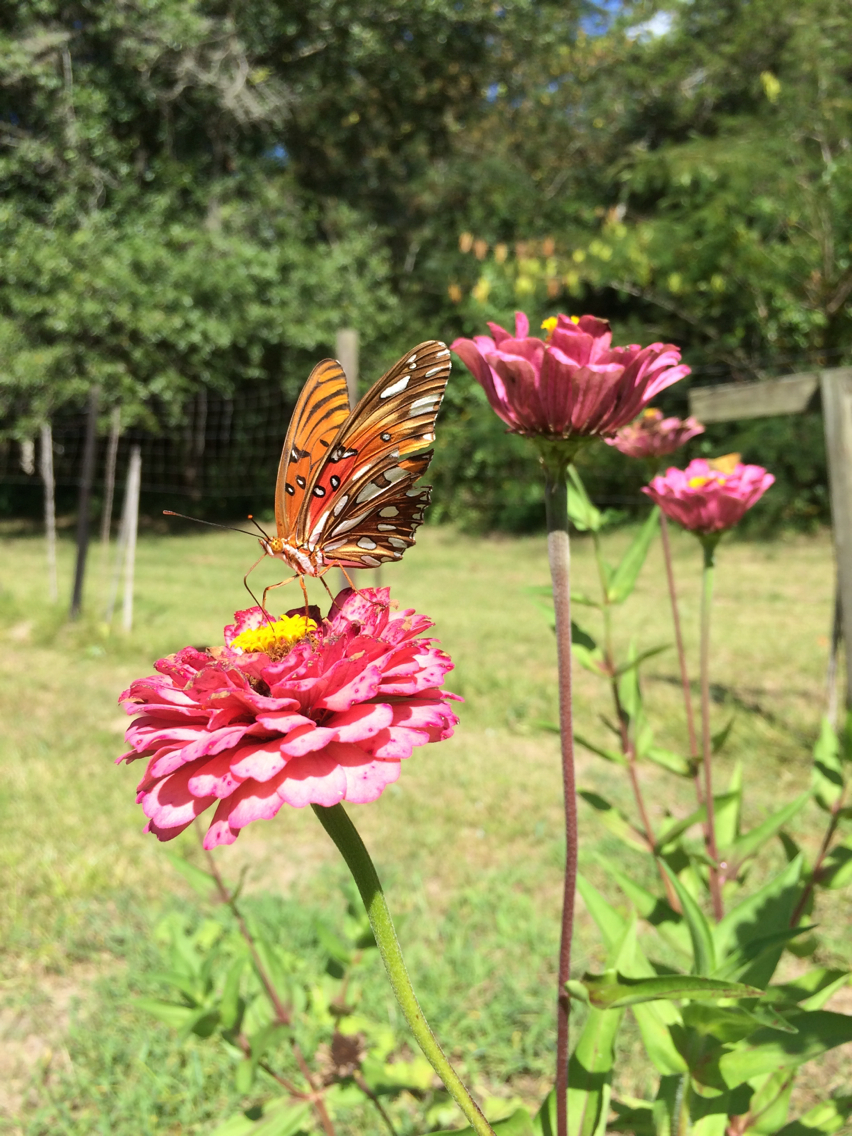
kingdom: Animalia
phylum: Arthropoda
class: Insecta
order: Lepidoptera
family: Nymphalidae
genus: Dione
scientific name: Dione vanillae
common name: Gulf fritillary
